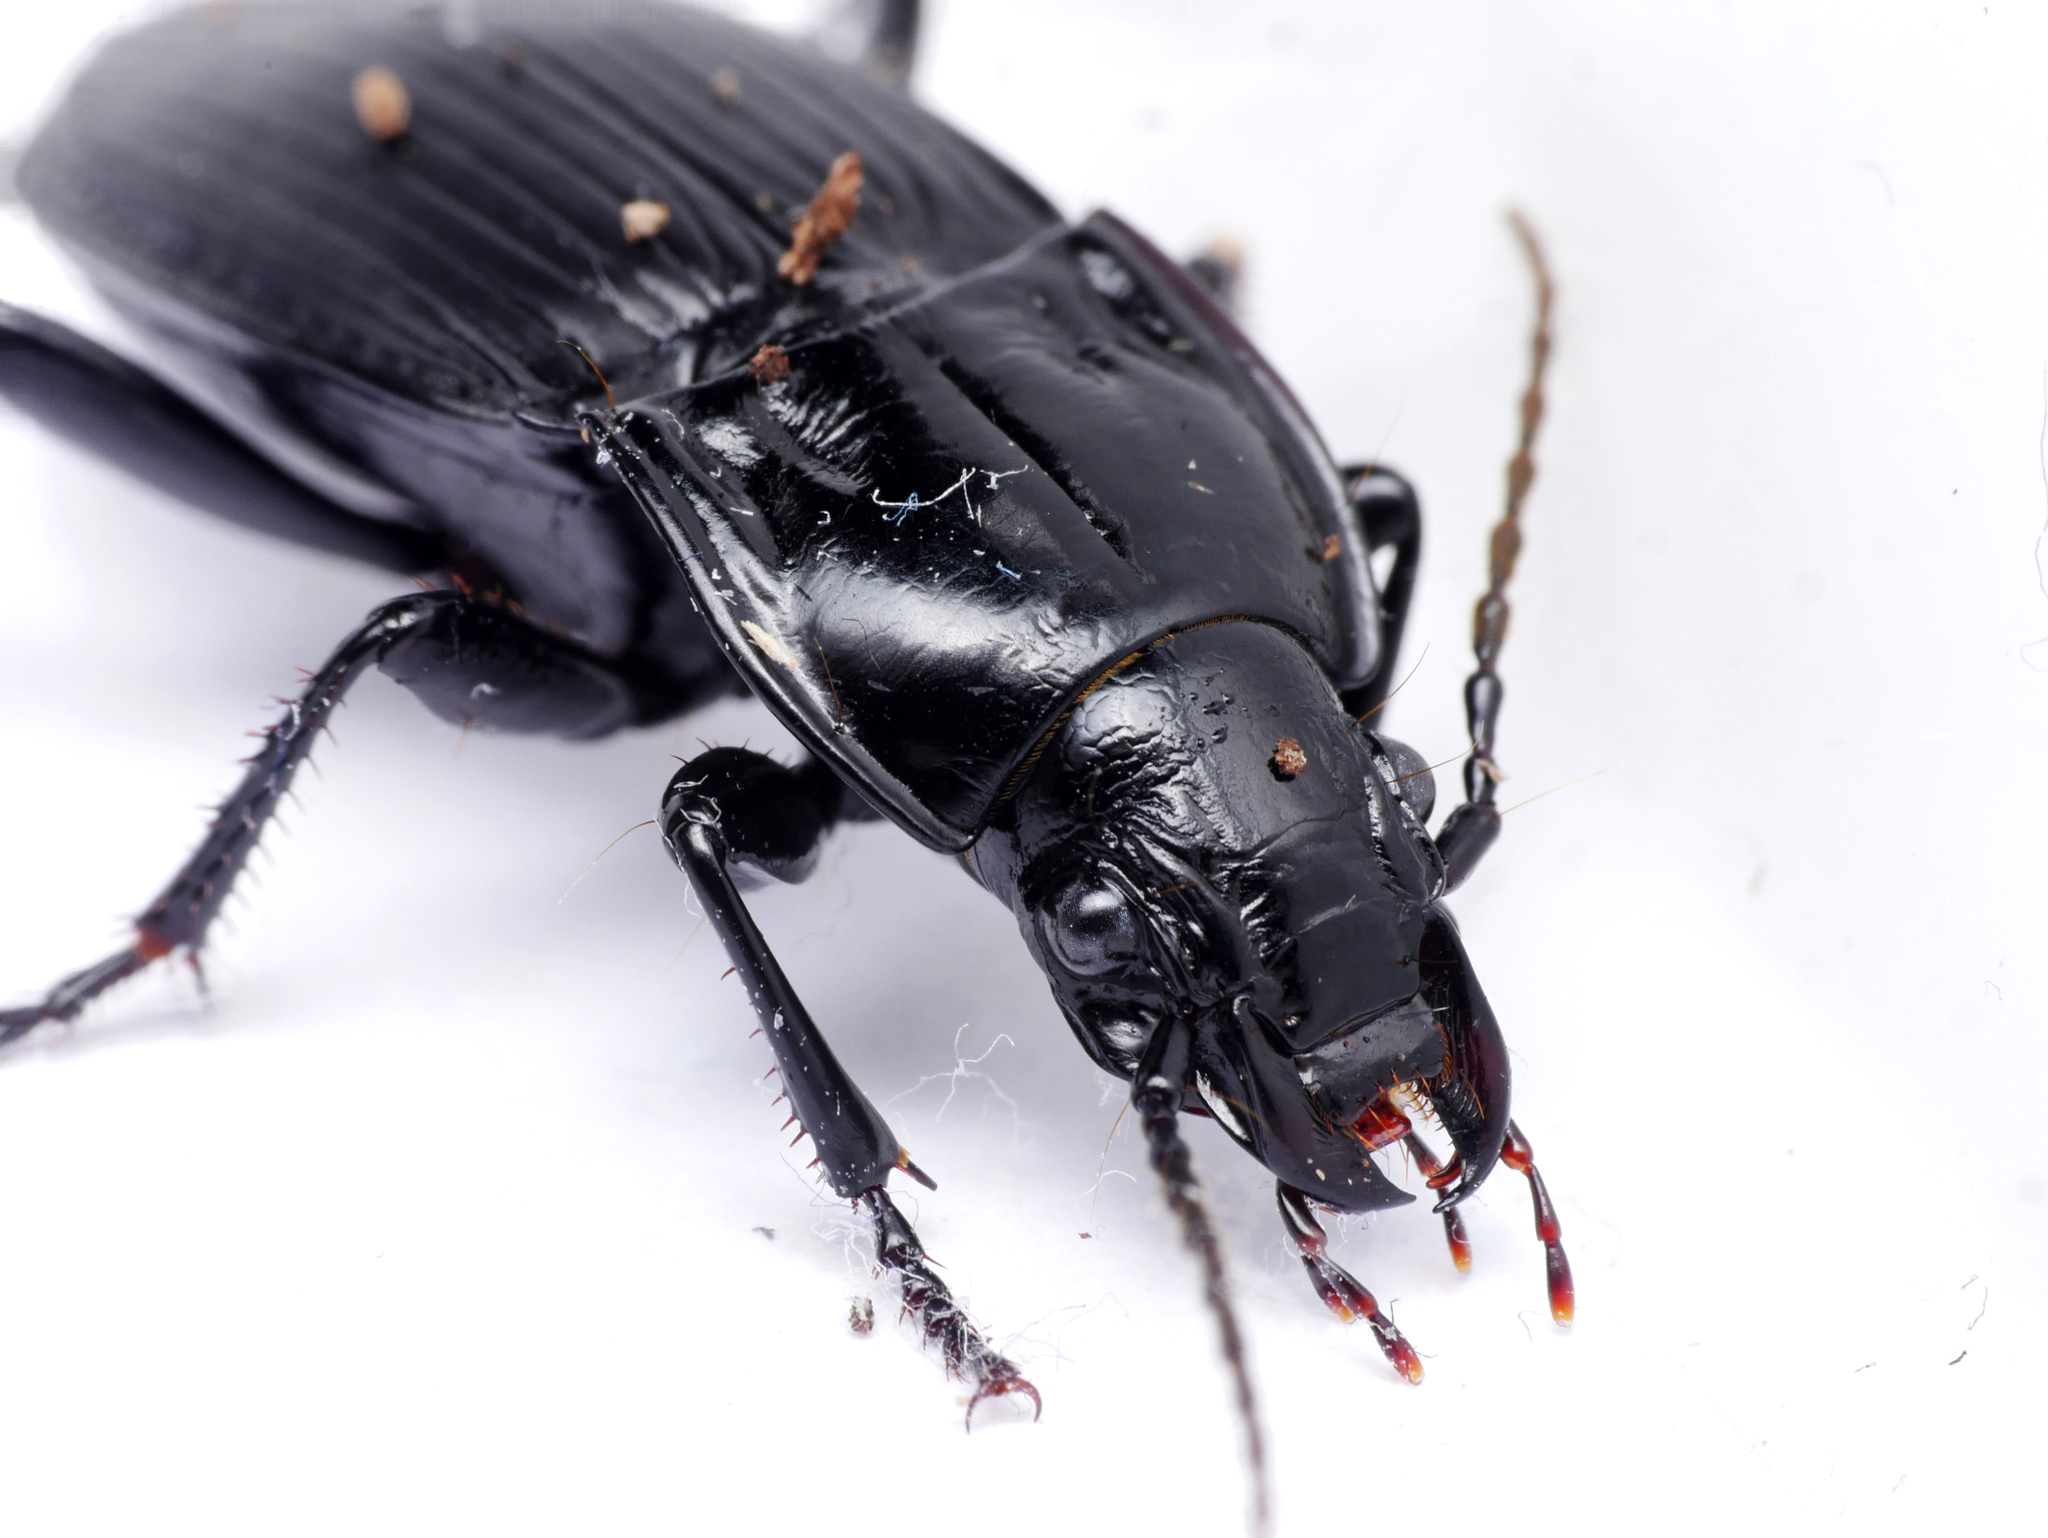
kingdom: Animalia
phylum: Arthropoda
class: Insecta
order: Coleoptera
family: Carabidae
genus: Abax
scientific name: Abax parallelepipedus
